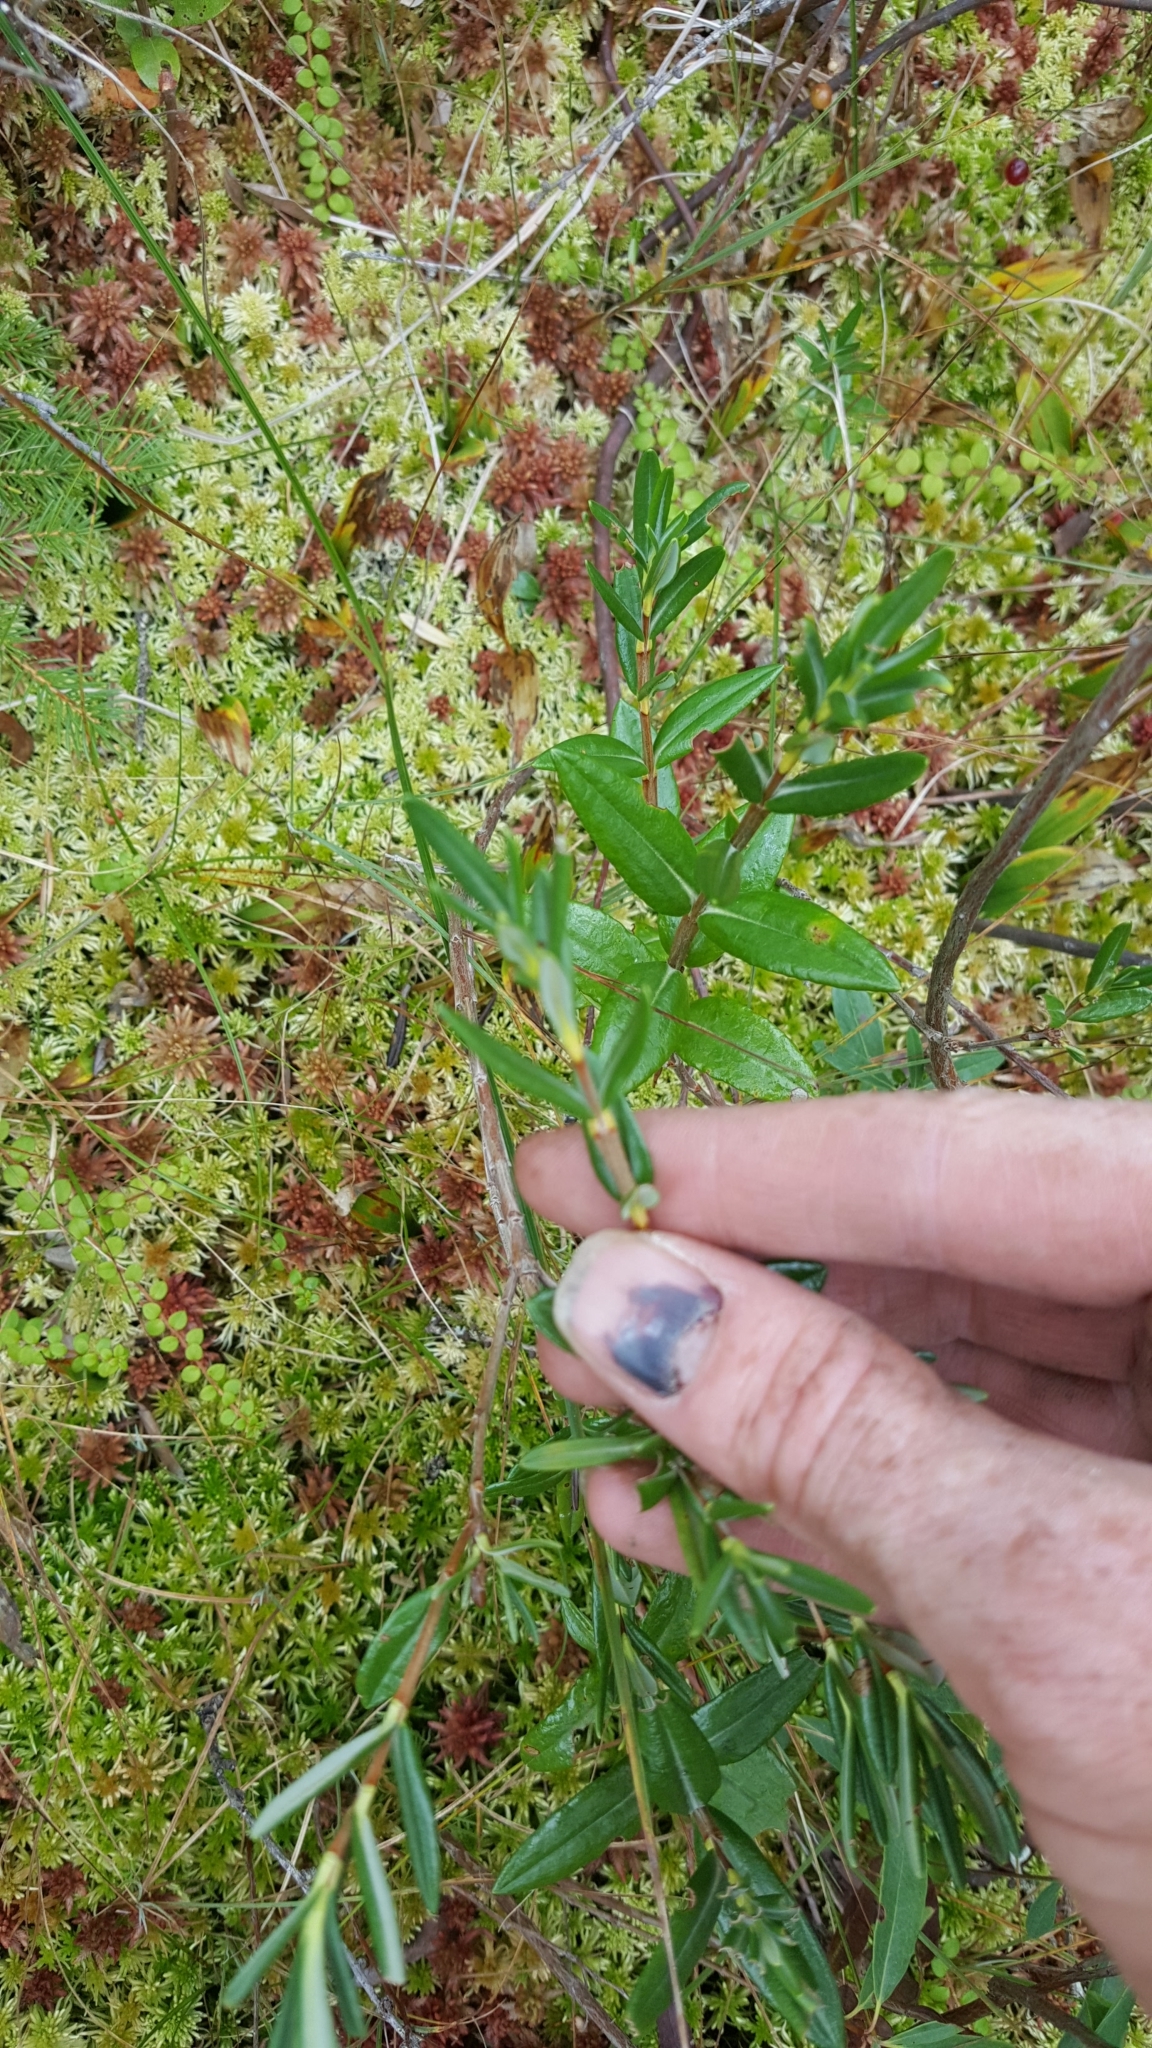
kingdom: Plantae
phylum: Tracheophyta
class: Magnoliopsida
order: Ericales
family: Ericaceae
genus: Kalmia
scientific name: Kalmia polifolia
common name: Bog-laurel
